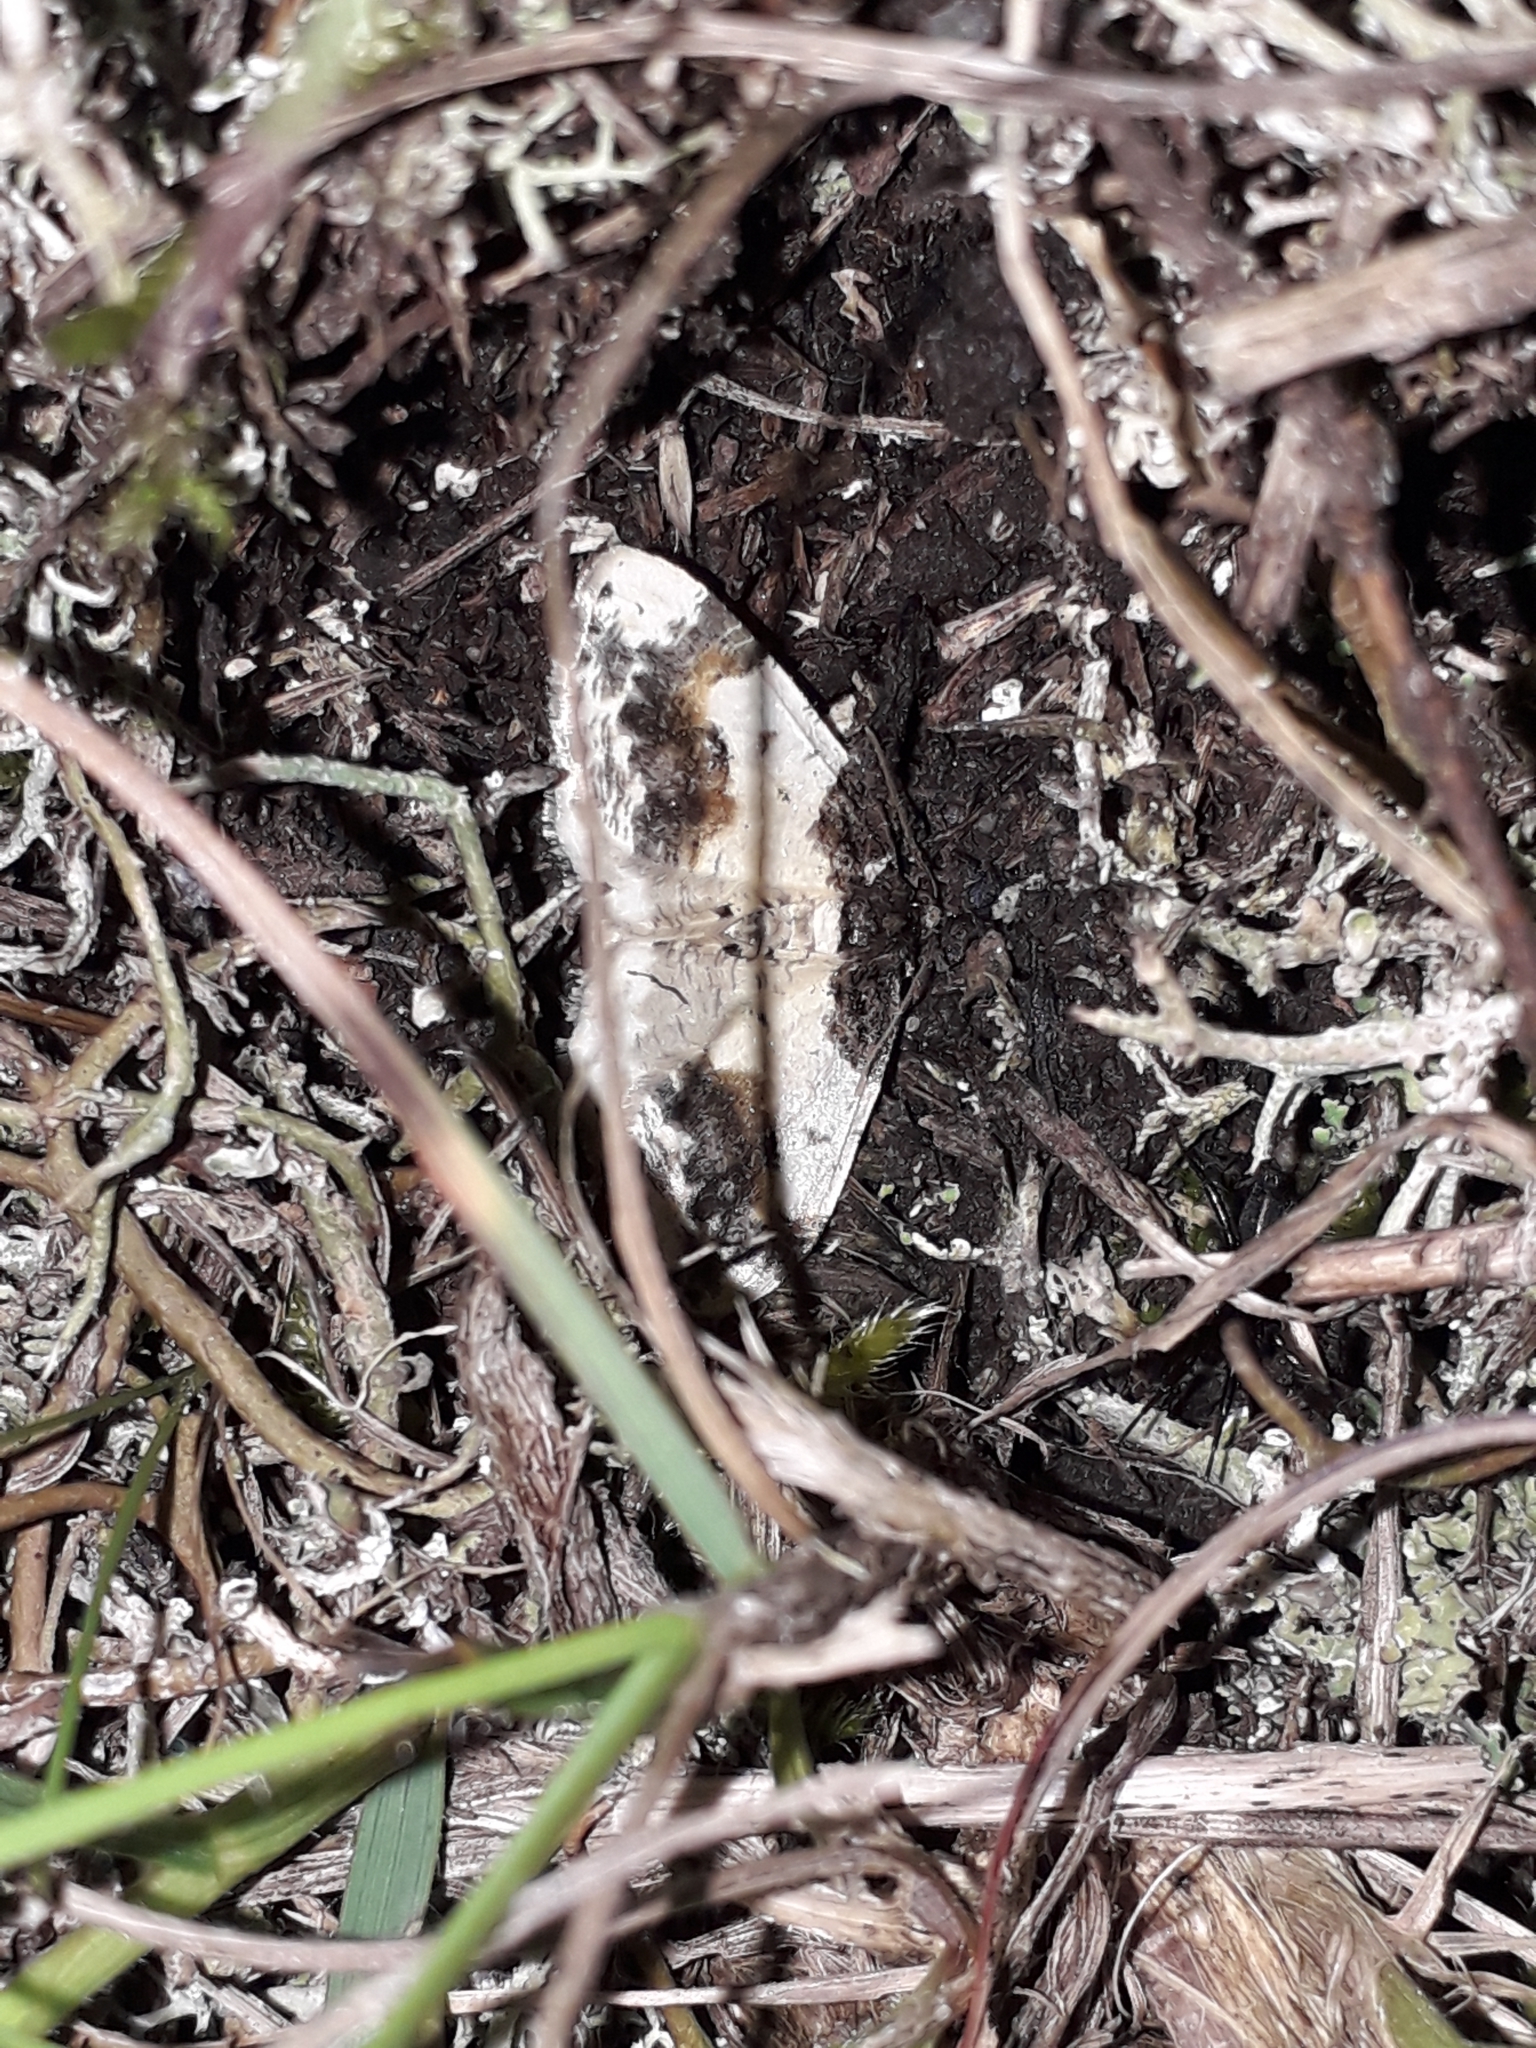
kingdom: Animalia
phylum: Arthropoda
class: Insecta
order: Lepidoptera
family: Geometridae
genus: Ligdia
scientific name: Ligdia adustata
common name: Scorched carpet
